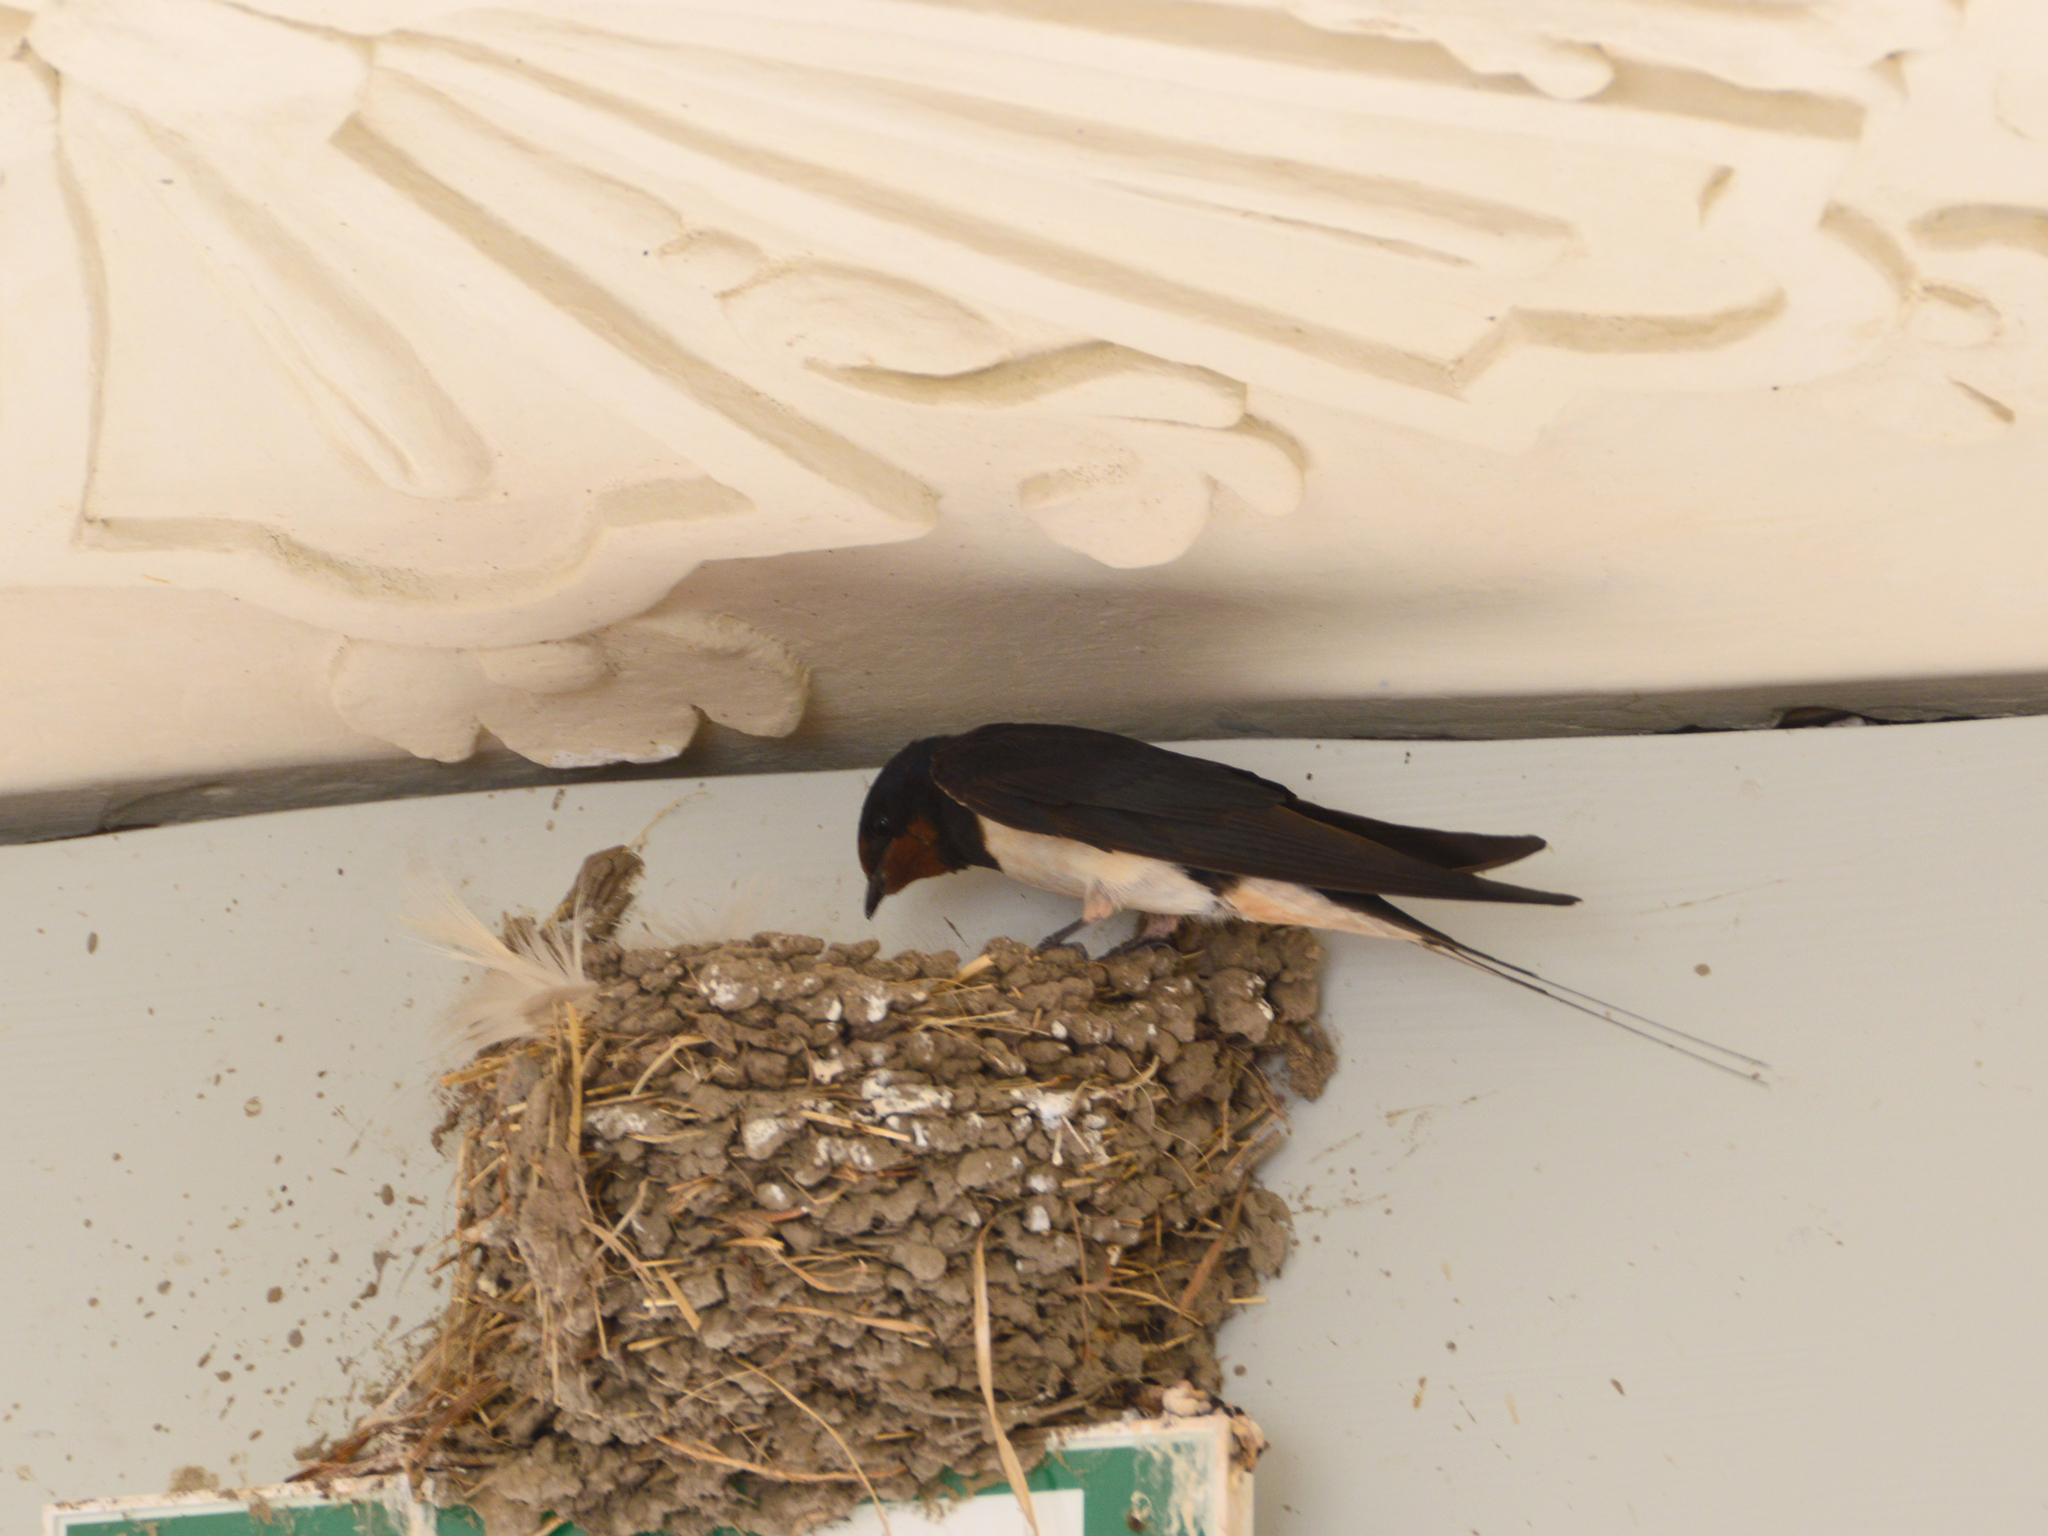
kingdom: Animalia
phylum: Chordata
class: Aves
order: Passeriformes
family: Hirundinidae
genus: Hirundo
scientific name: Hirundo rustica
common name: Barn swallow
